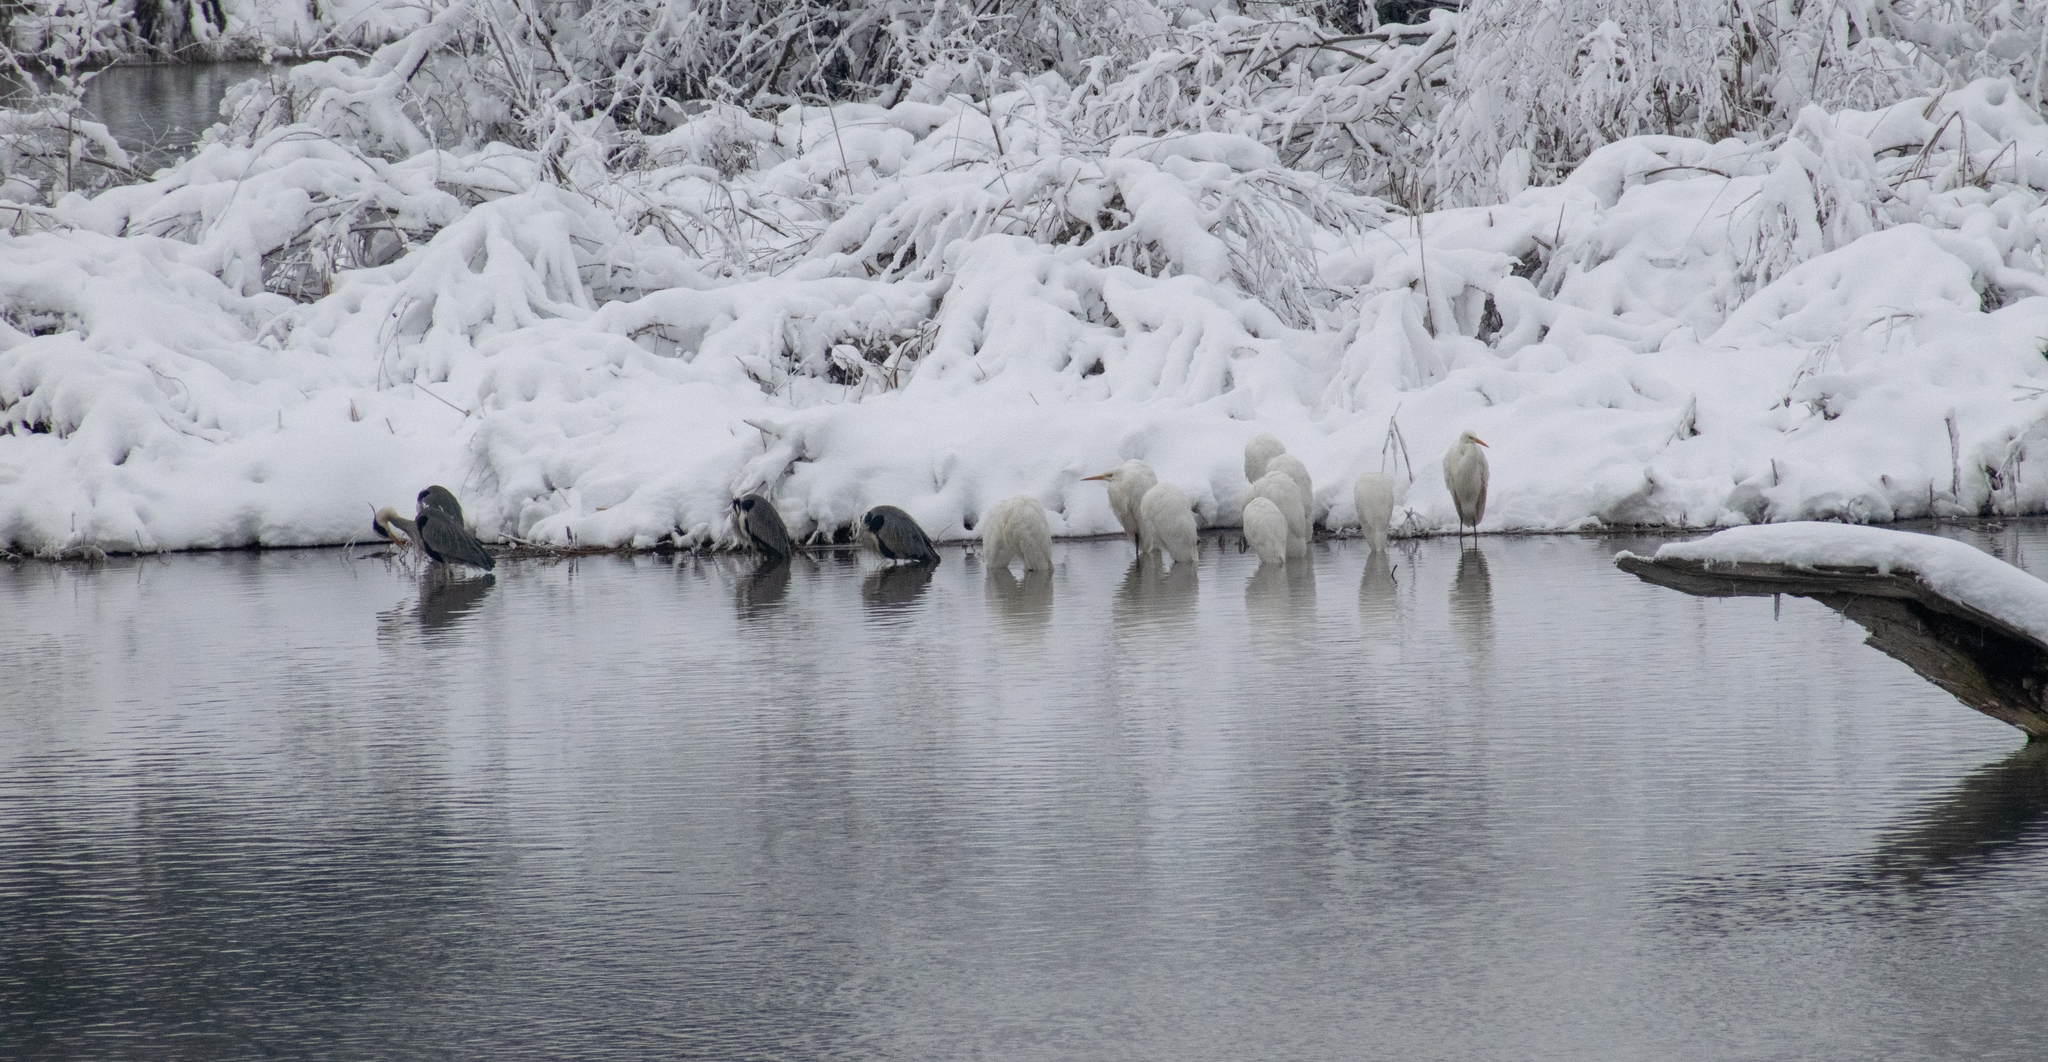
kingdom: Animalia
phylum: Chordata
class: Aves
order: Pelecaniformes
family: Ardeidae
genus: Ardea
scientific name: Ardea cinerea
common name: Grey heron
